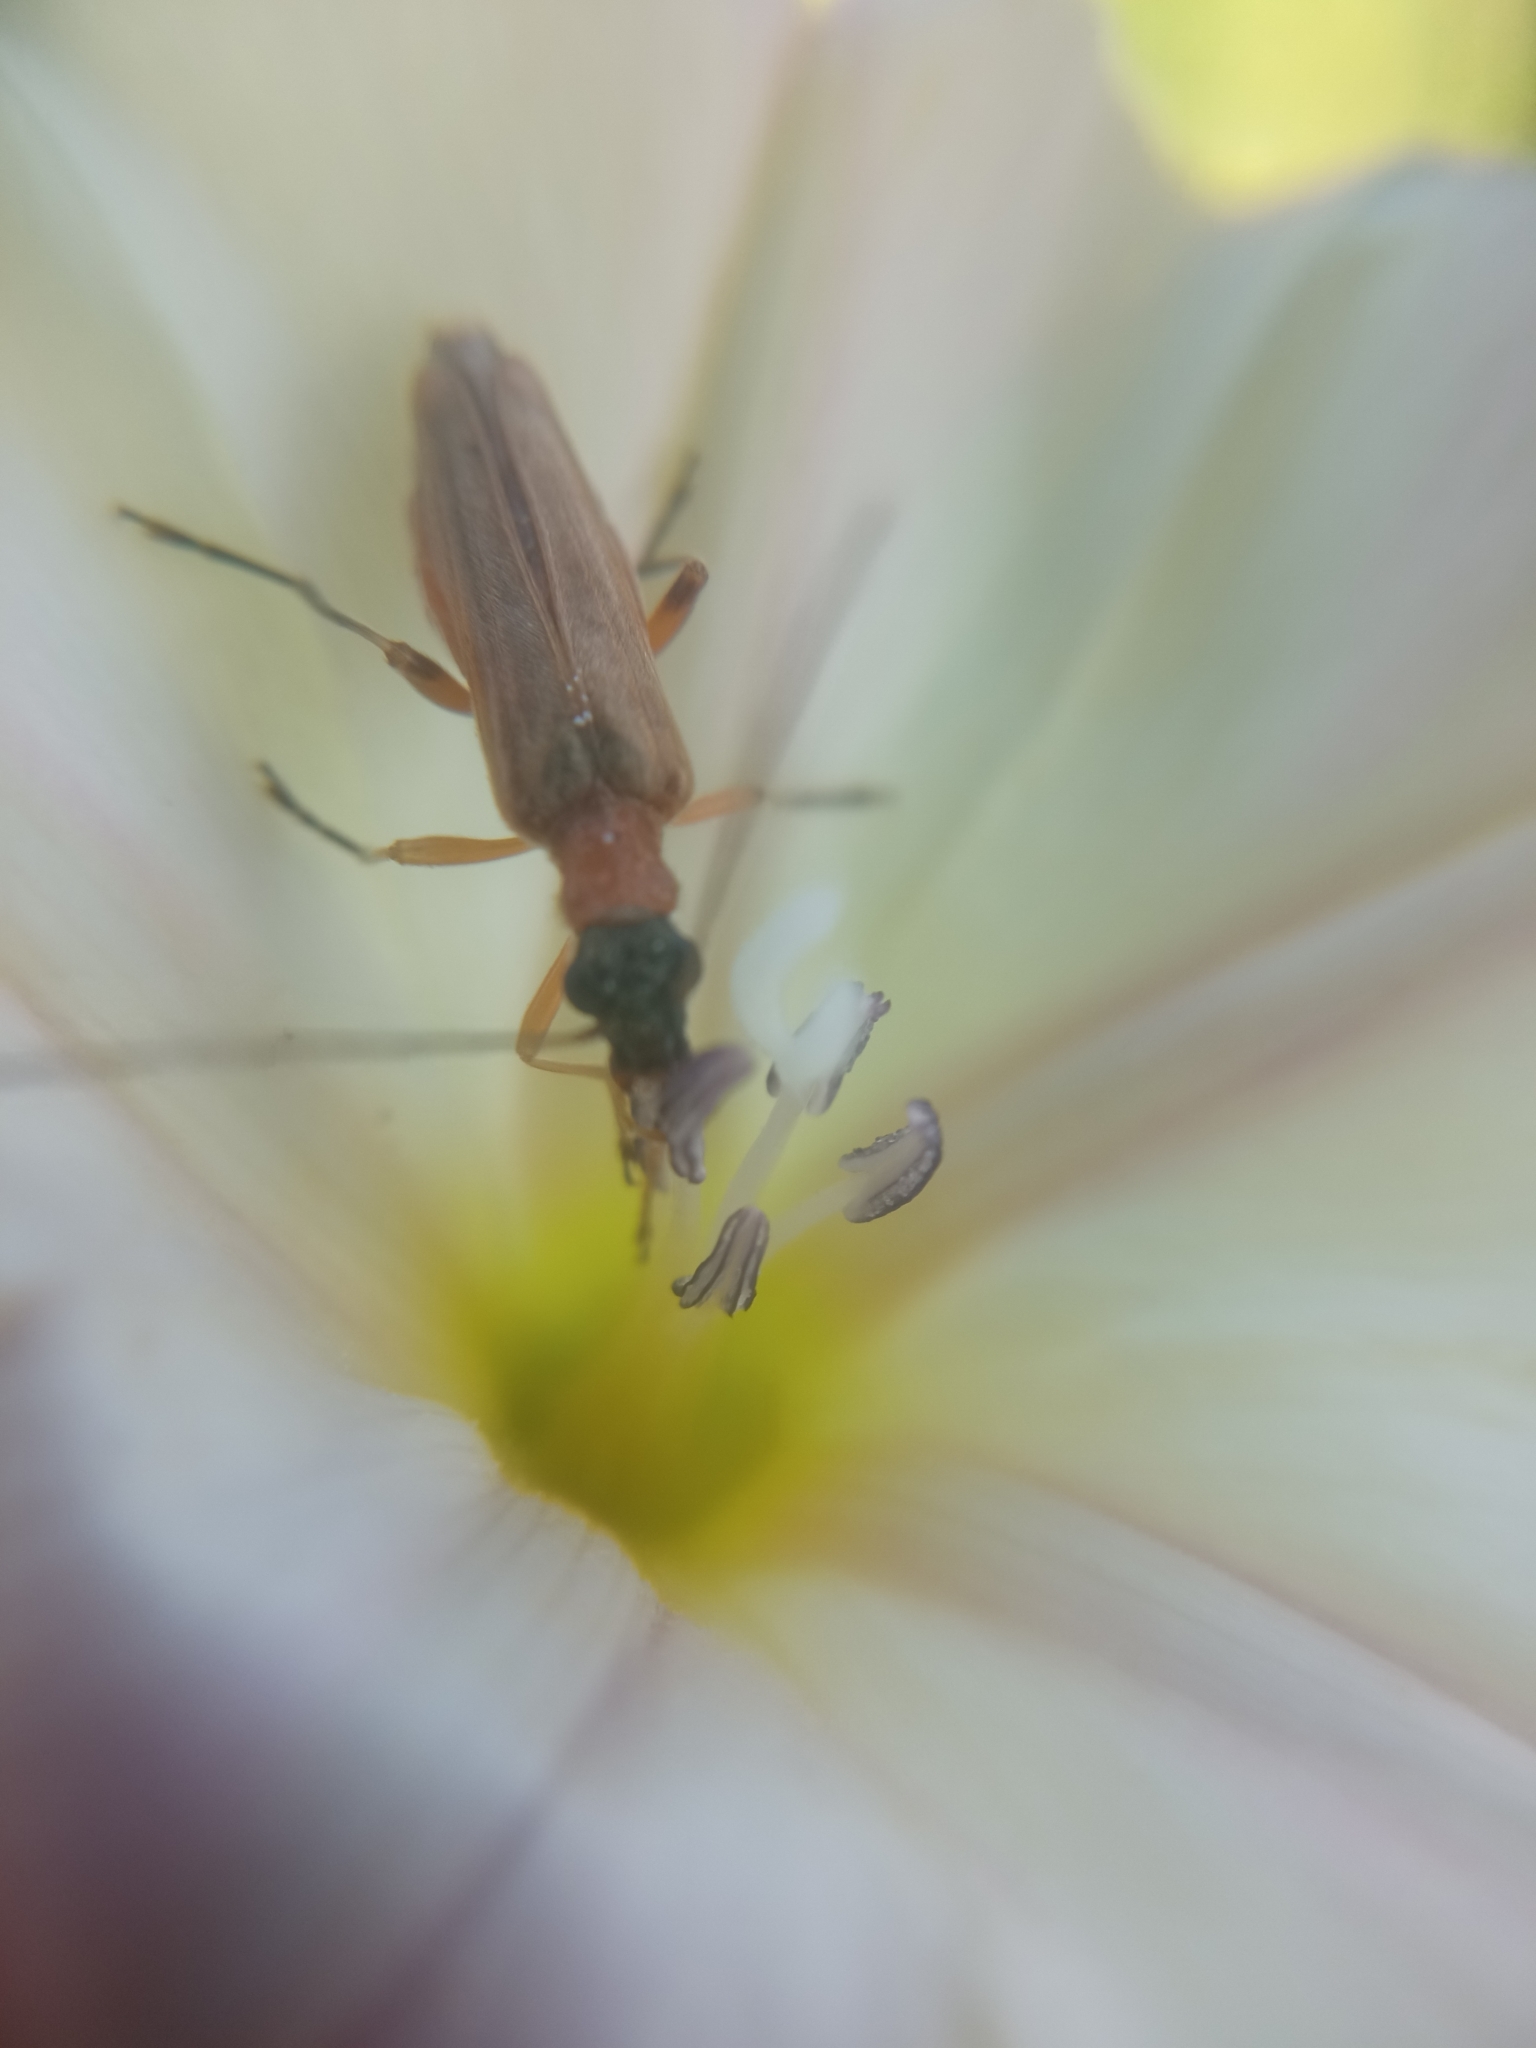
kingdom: Animalia
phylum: Arthropoda
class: Insecta
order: Coleoptera
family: Oedemeridae
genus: Oedemera
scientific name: Oedemera podagrariae
